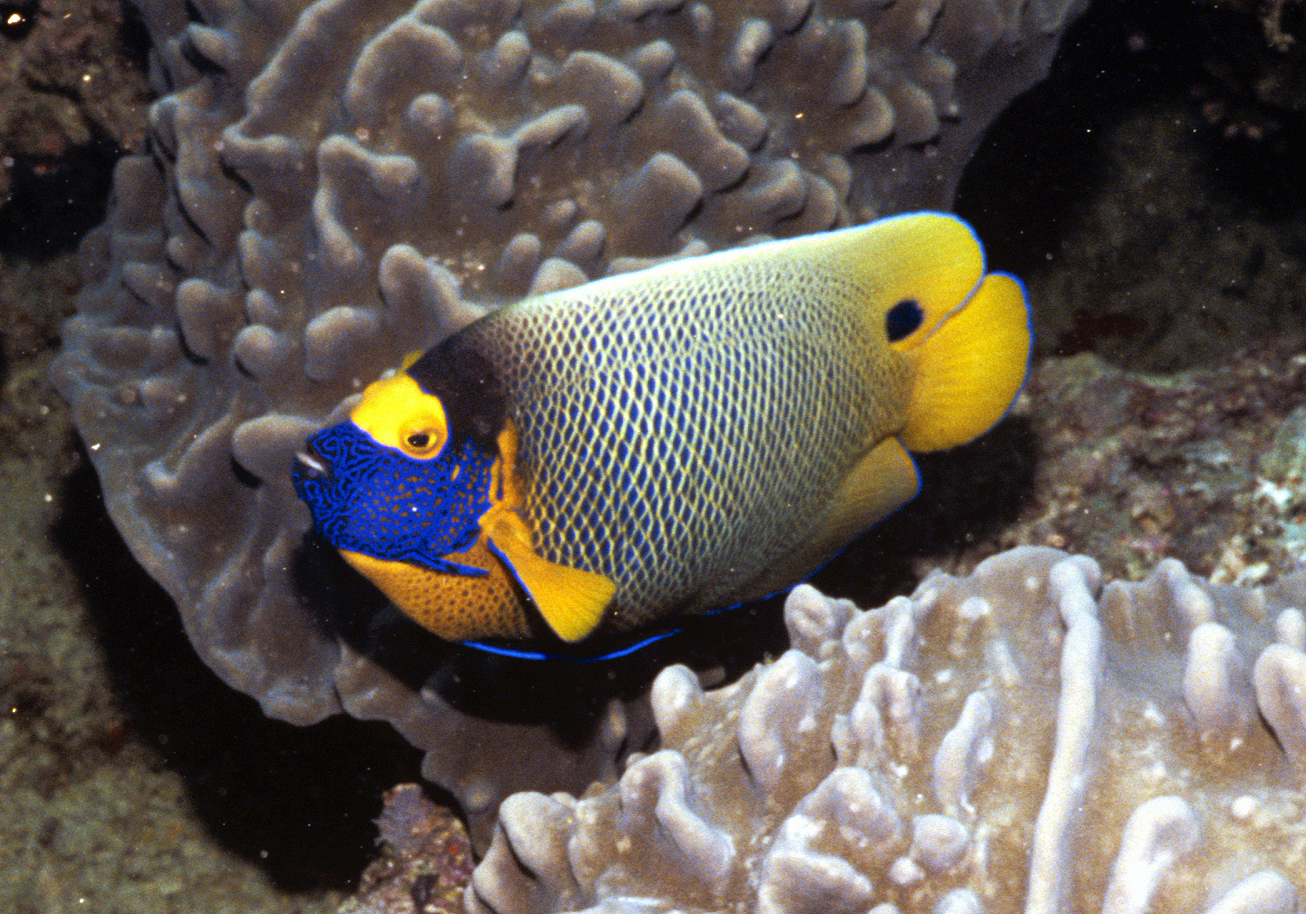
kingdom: Animalia
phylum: Chordata
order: Perciformes
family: Pomacanthidae
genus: Pomacanthus
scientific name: Pomacanthus xanthometopon
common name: Yellow-faced angelfish
